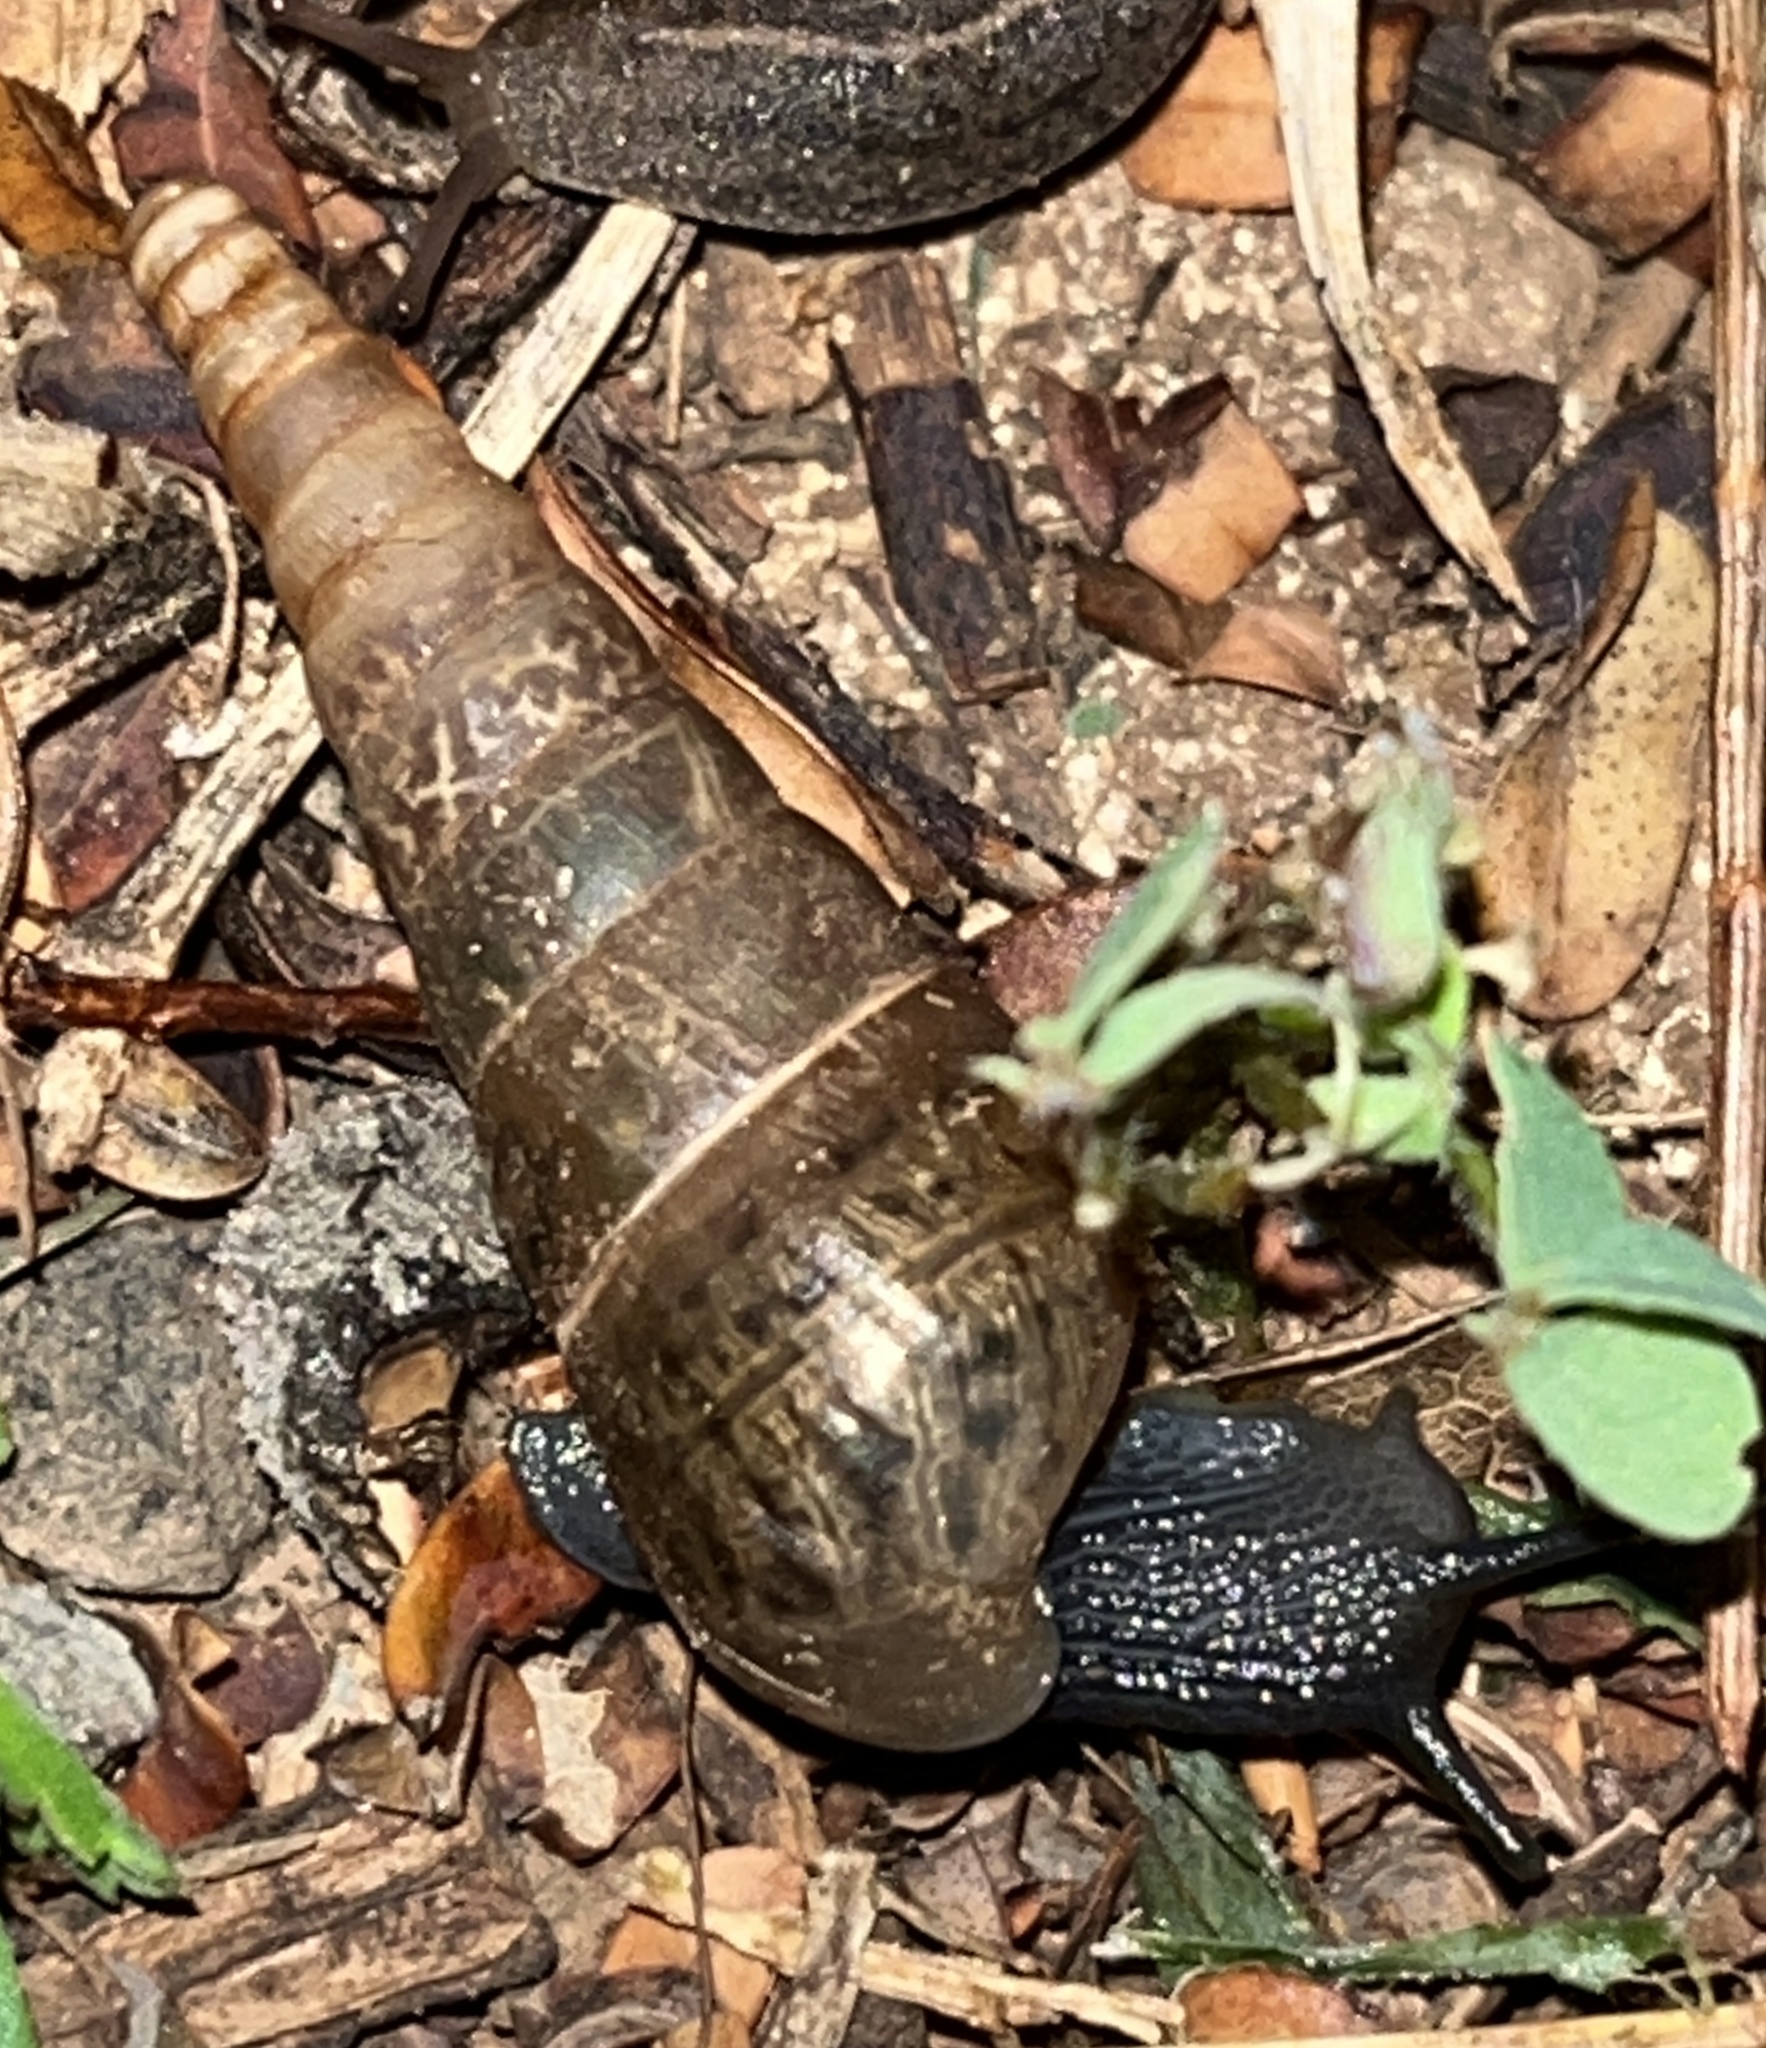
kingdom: Animalia
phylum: Mollusca
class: Gastropoda
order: Stylommatophora
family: Achatinidae
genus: Rumina
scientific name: Rumina decollata
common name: Decollate snail
